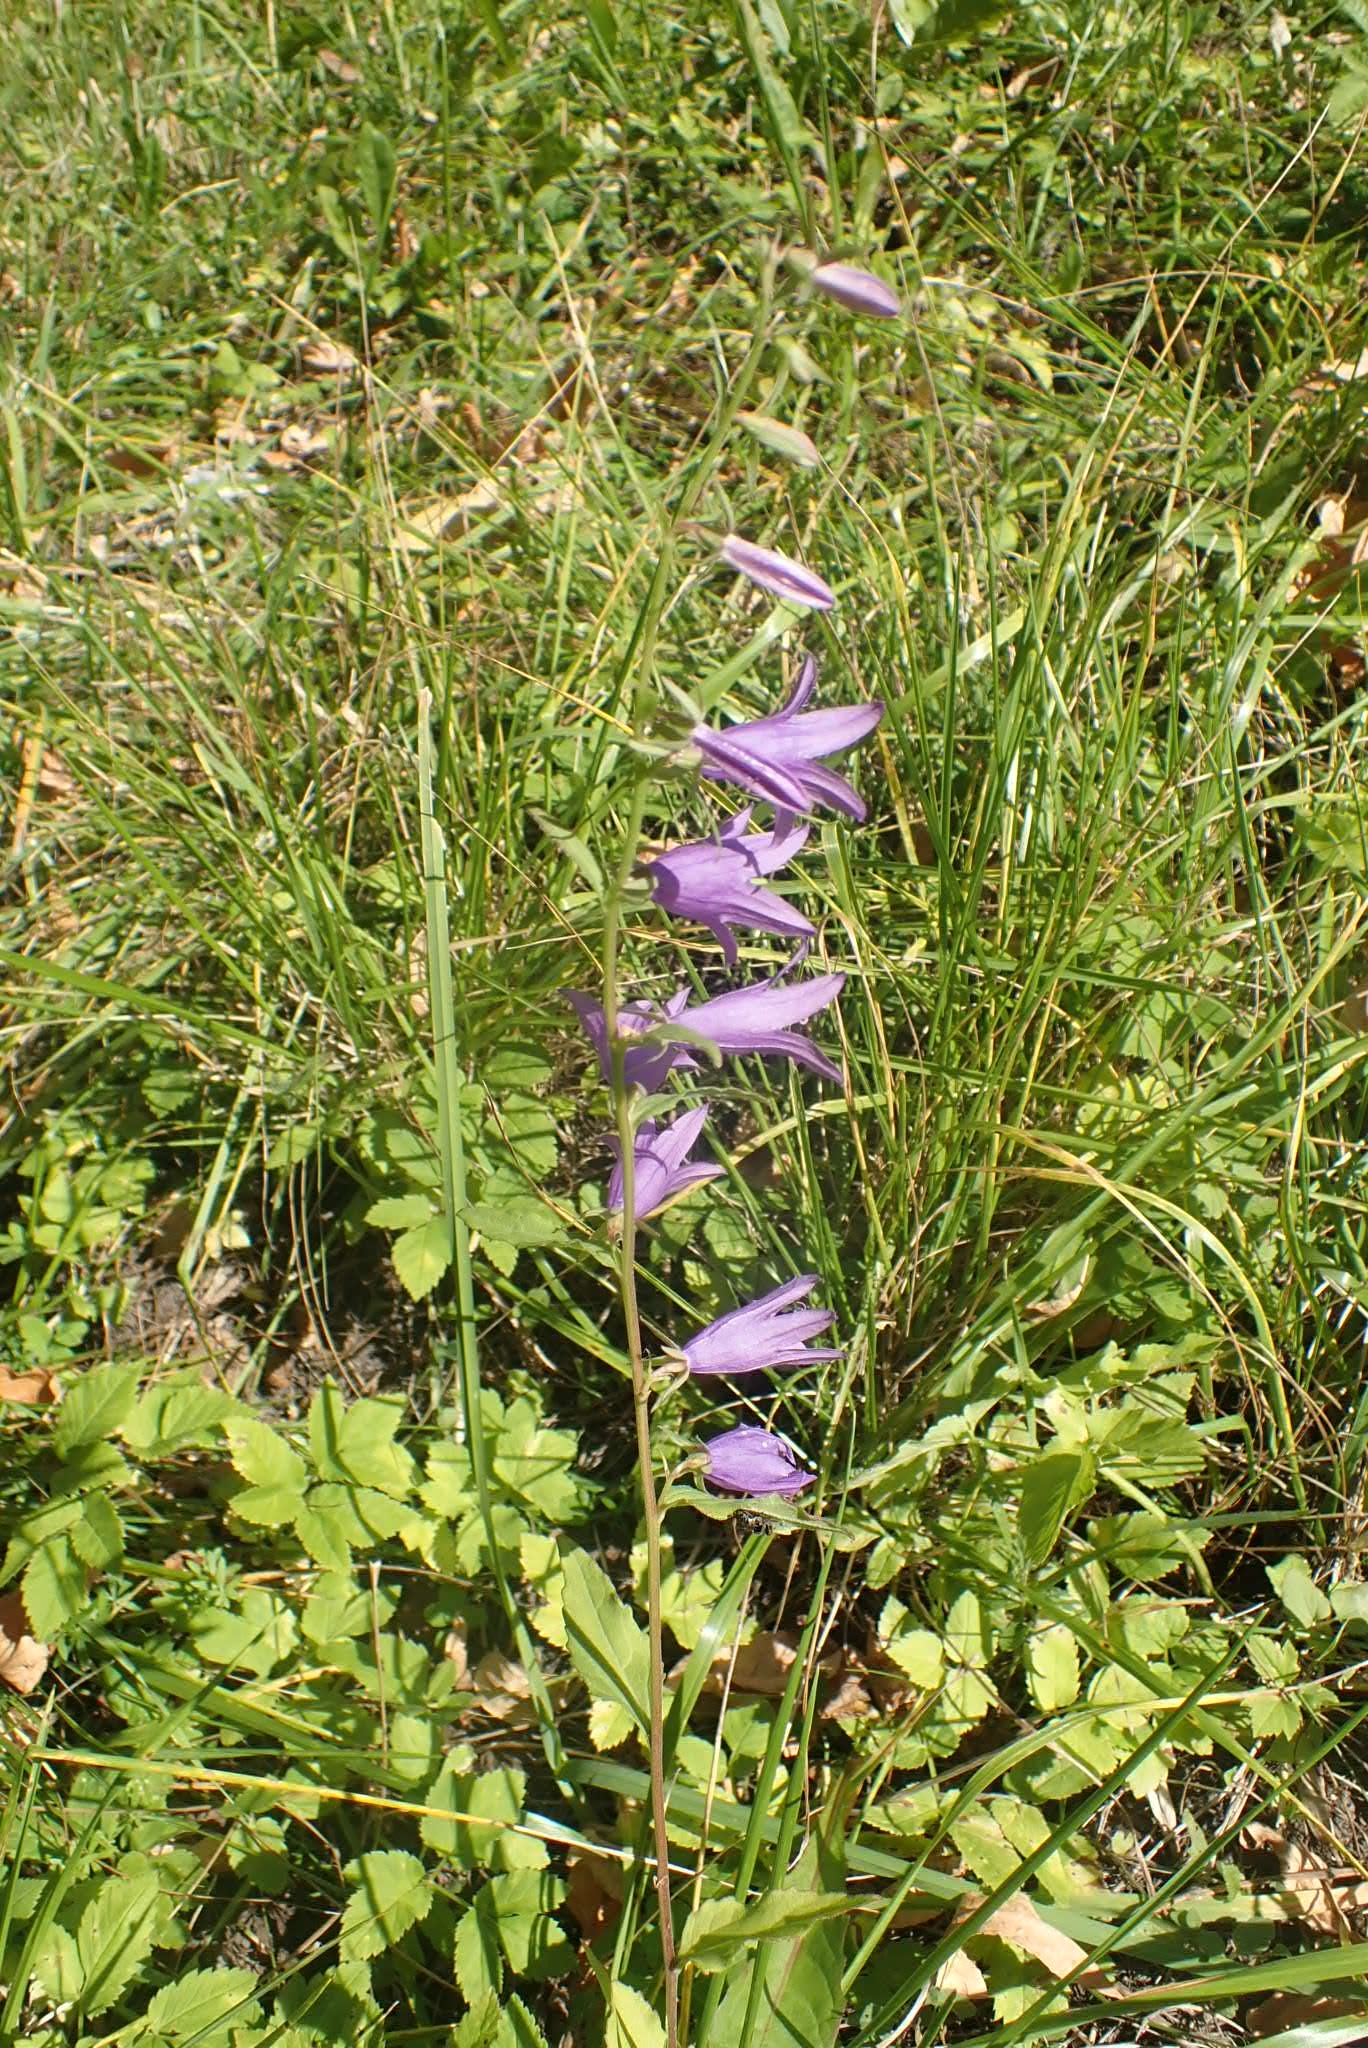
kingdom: Plantae
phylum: Tracheophyta
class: Magnoliopsida
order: Asterales
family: Campanulaceae
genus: Campanula
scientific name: Campanula rapunculoides
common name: Creeping bellflower
